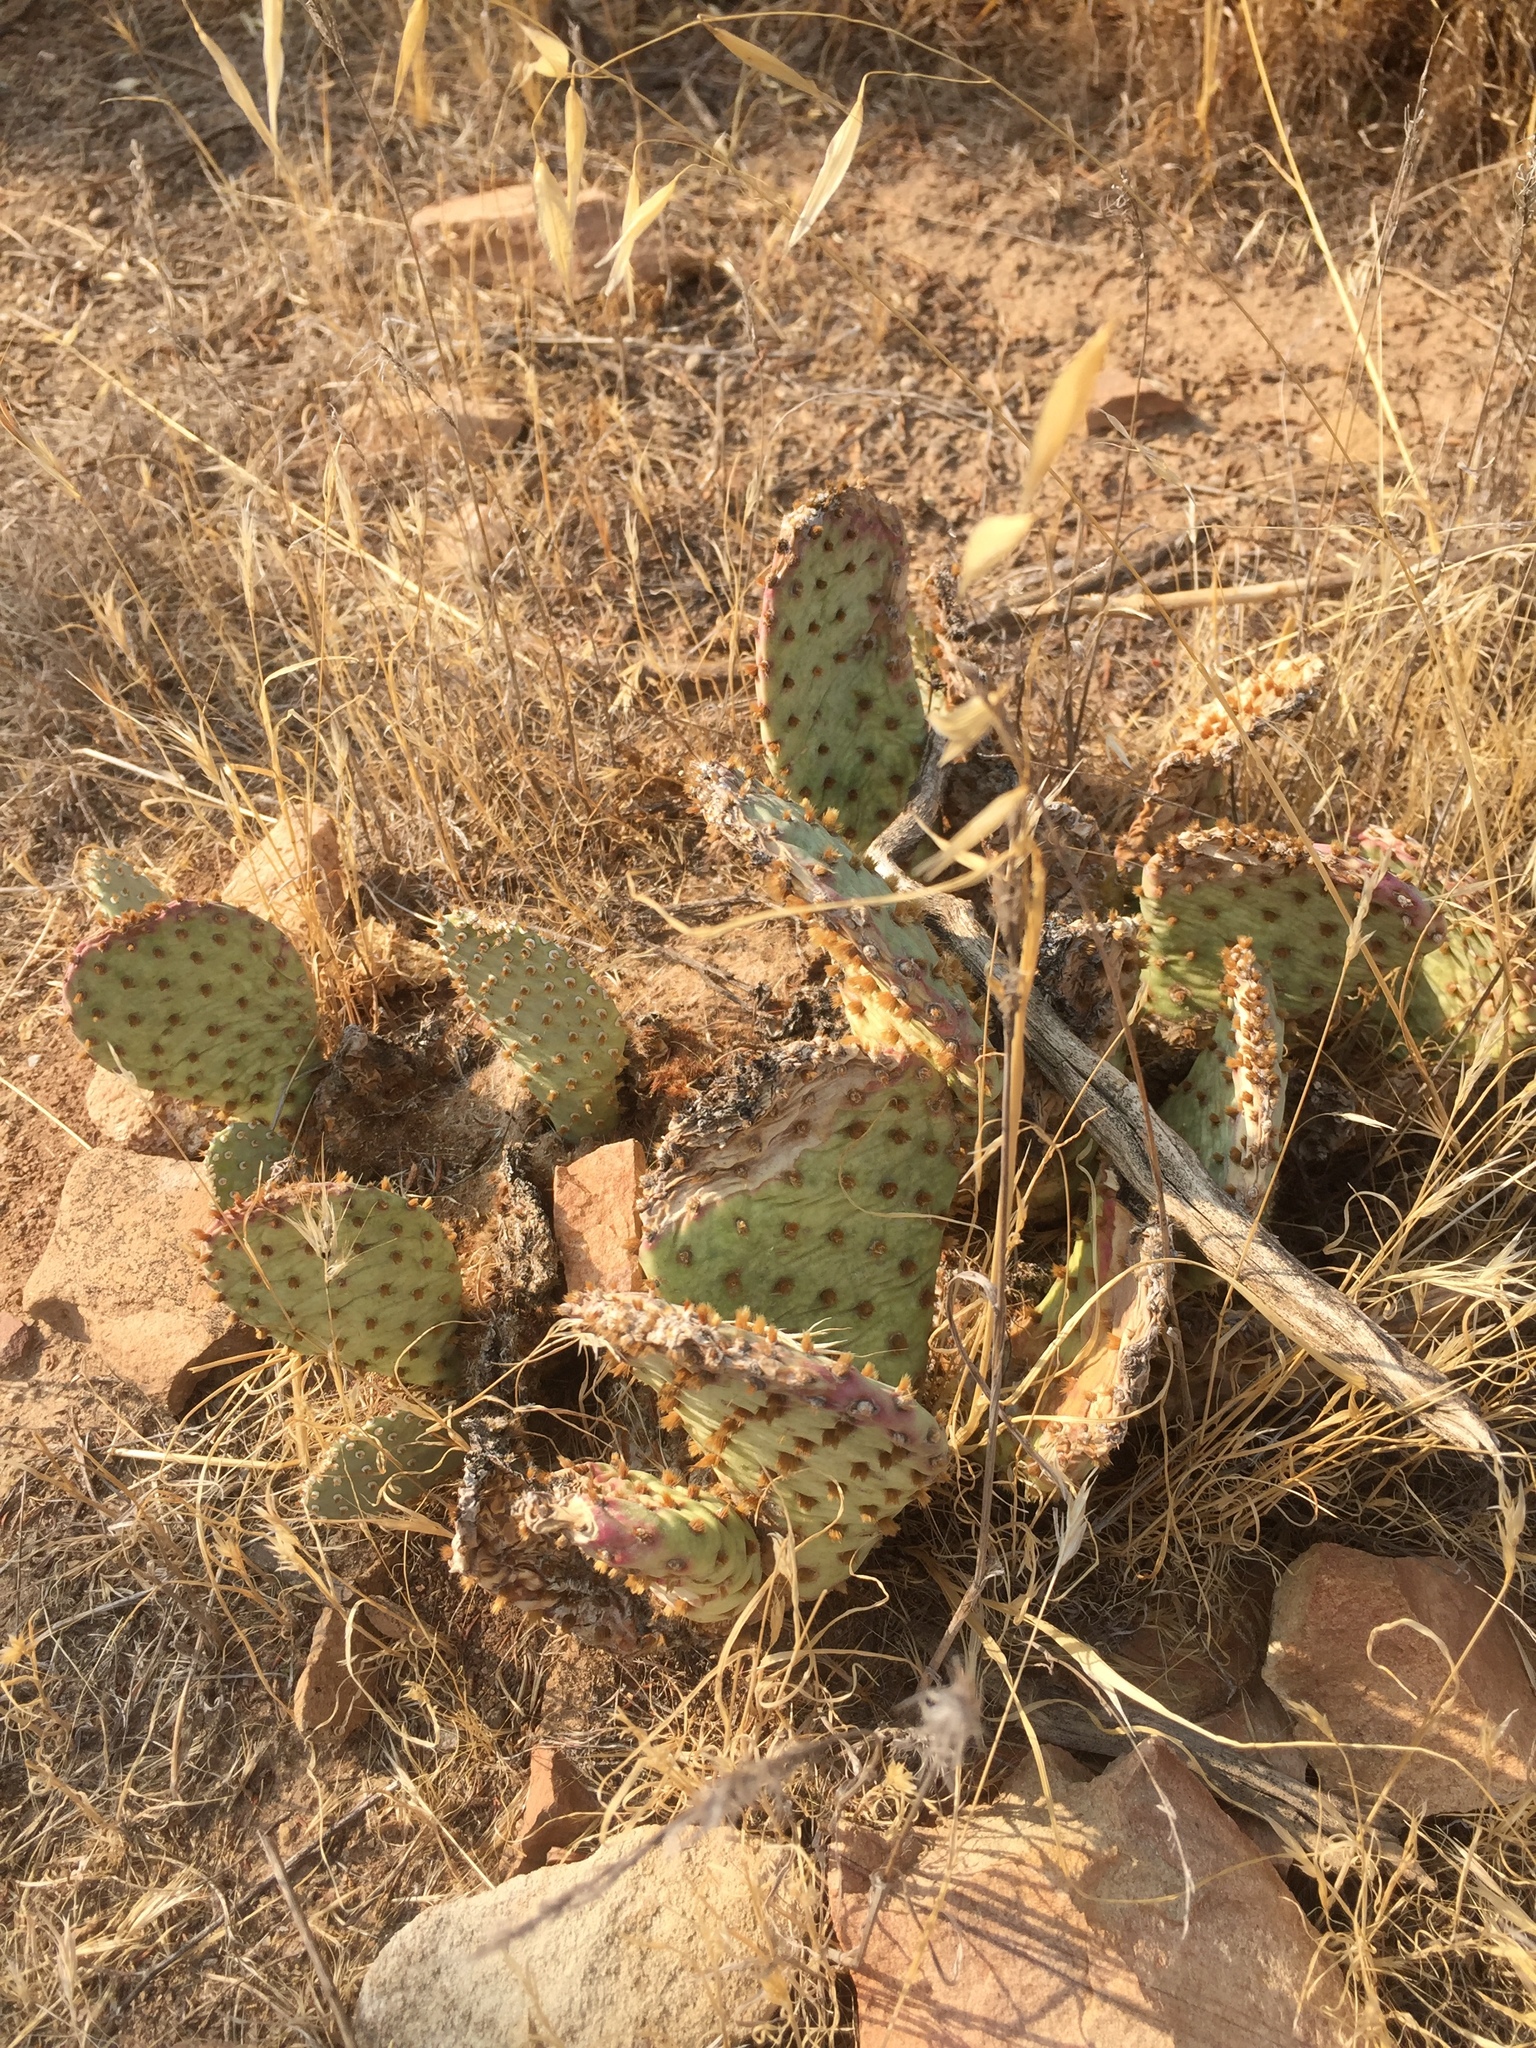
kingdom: Plantae
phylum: Tracheophyta
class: Magnoliopsida
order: Caryophyllales
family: Cactaceae
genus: Opuntia
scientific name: Opuntia basilaris
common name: Beavertail prickly-pear
